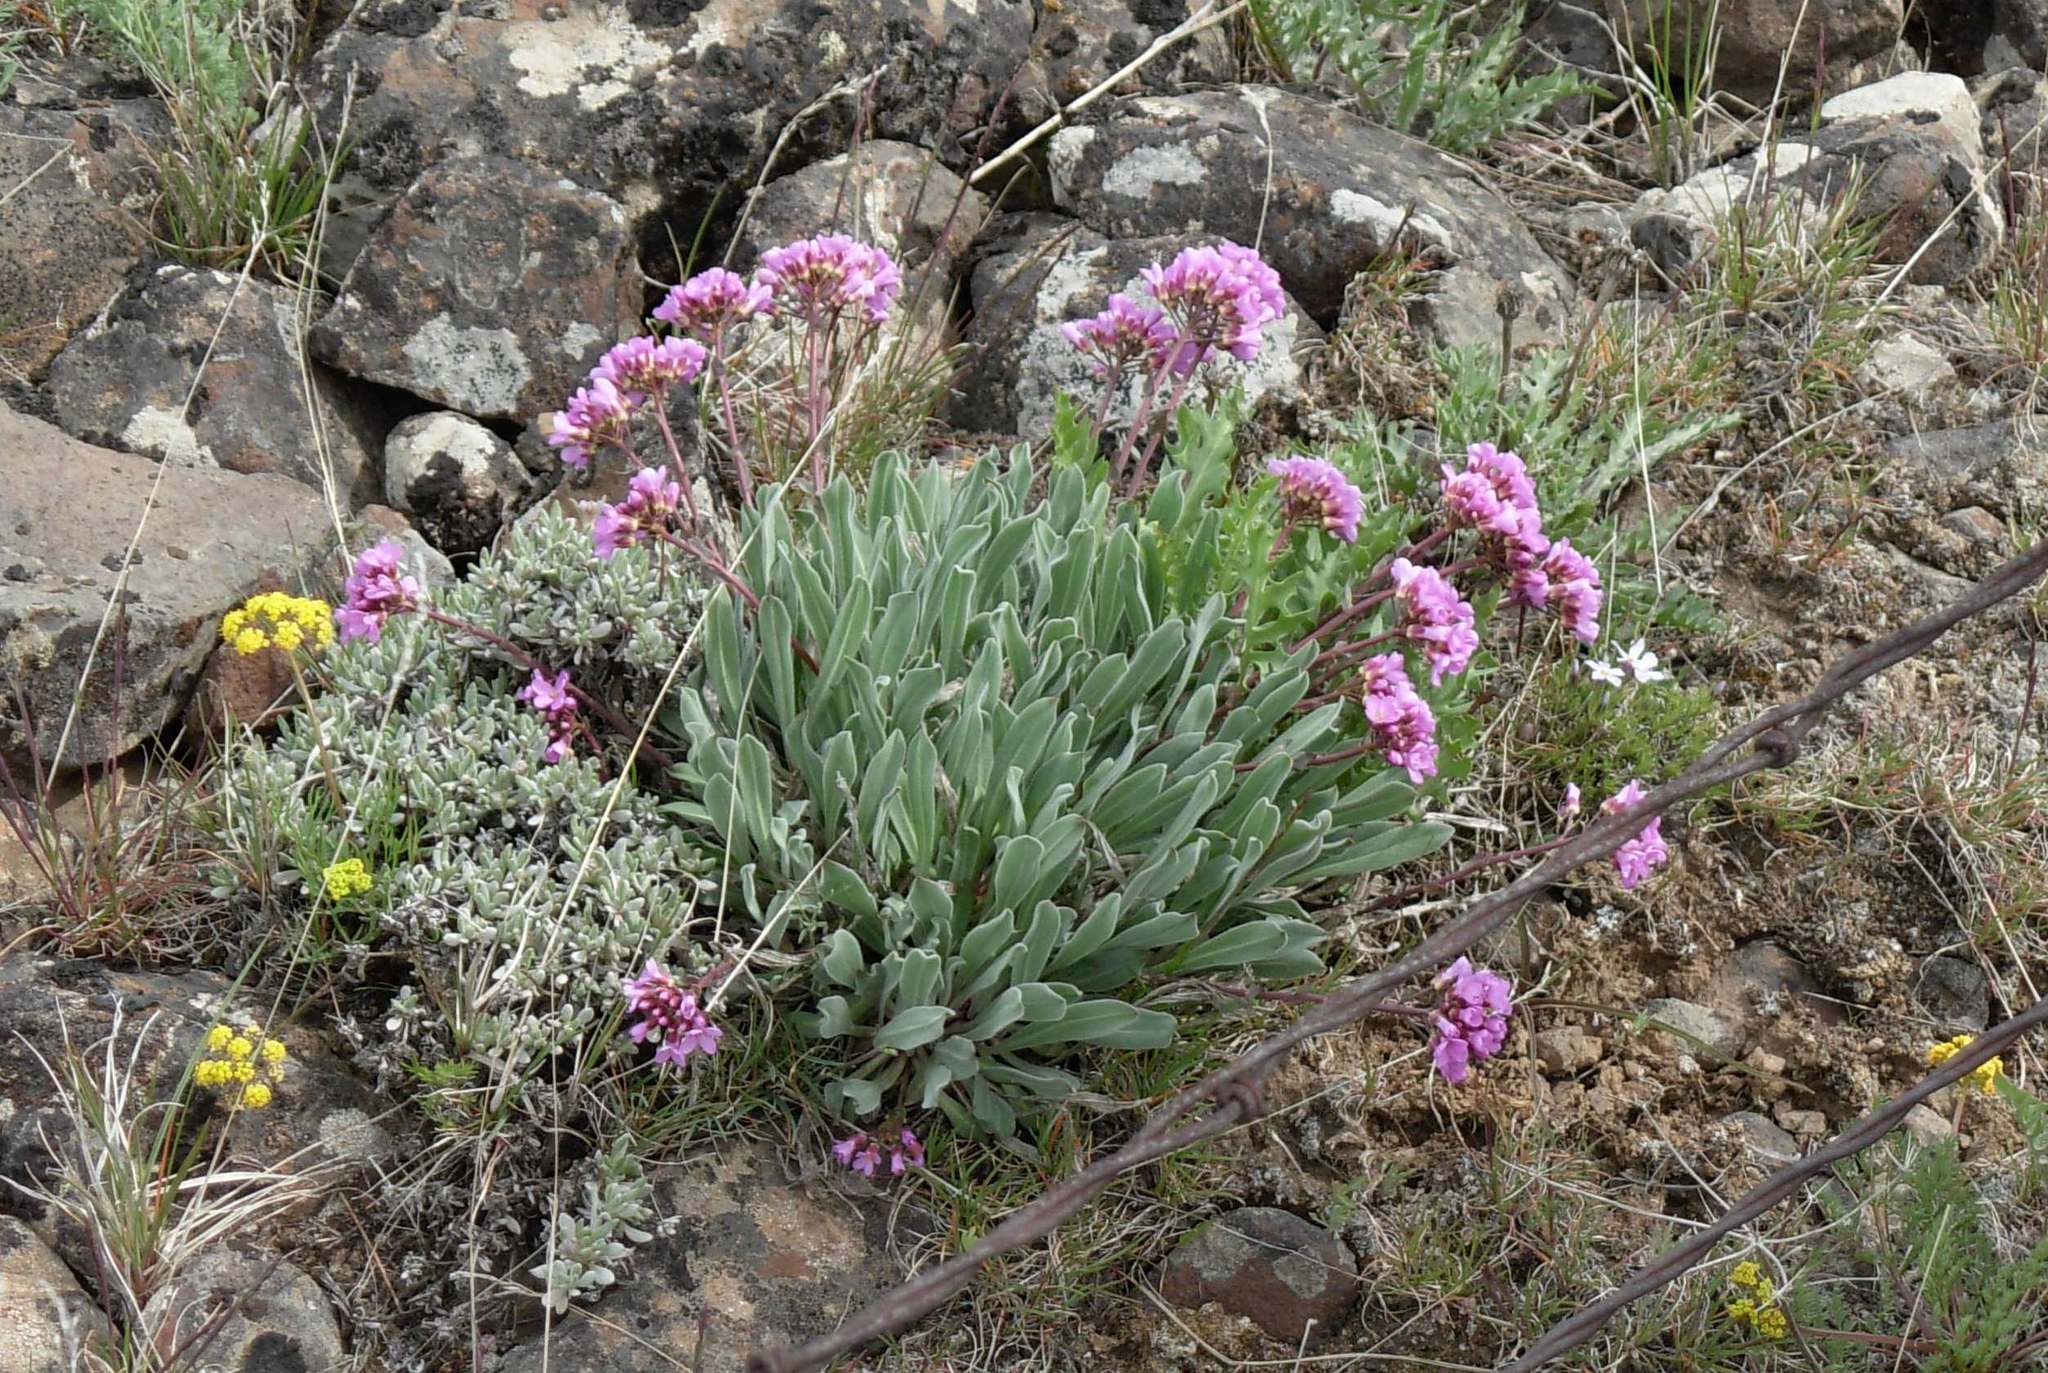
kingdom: Plantae
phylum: Tracheophyta
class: Magnoliopsida
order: Brassicales
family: Brassicaceae
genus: Phoenicaulis
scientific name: Phoenicaulis cheiranthoides
